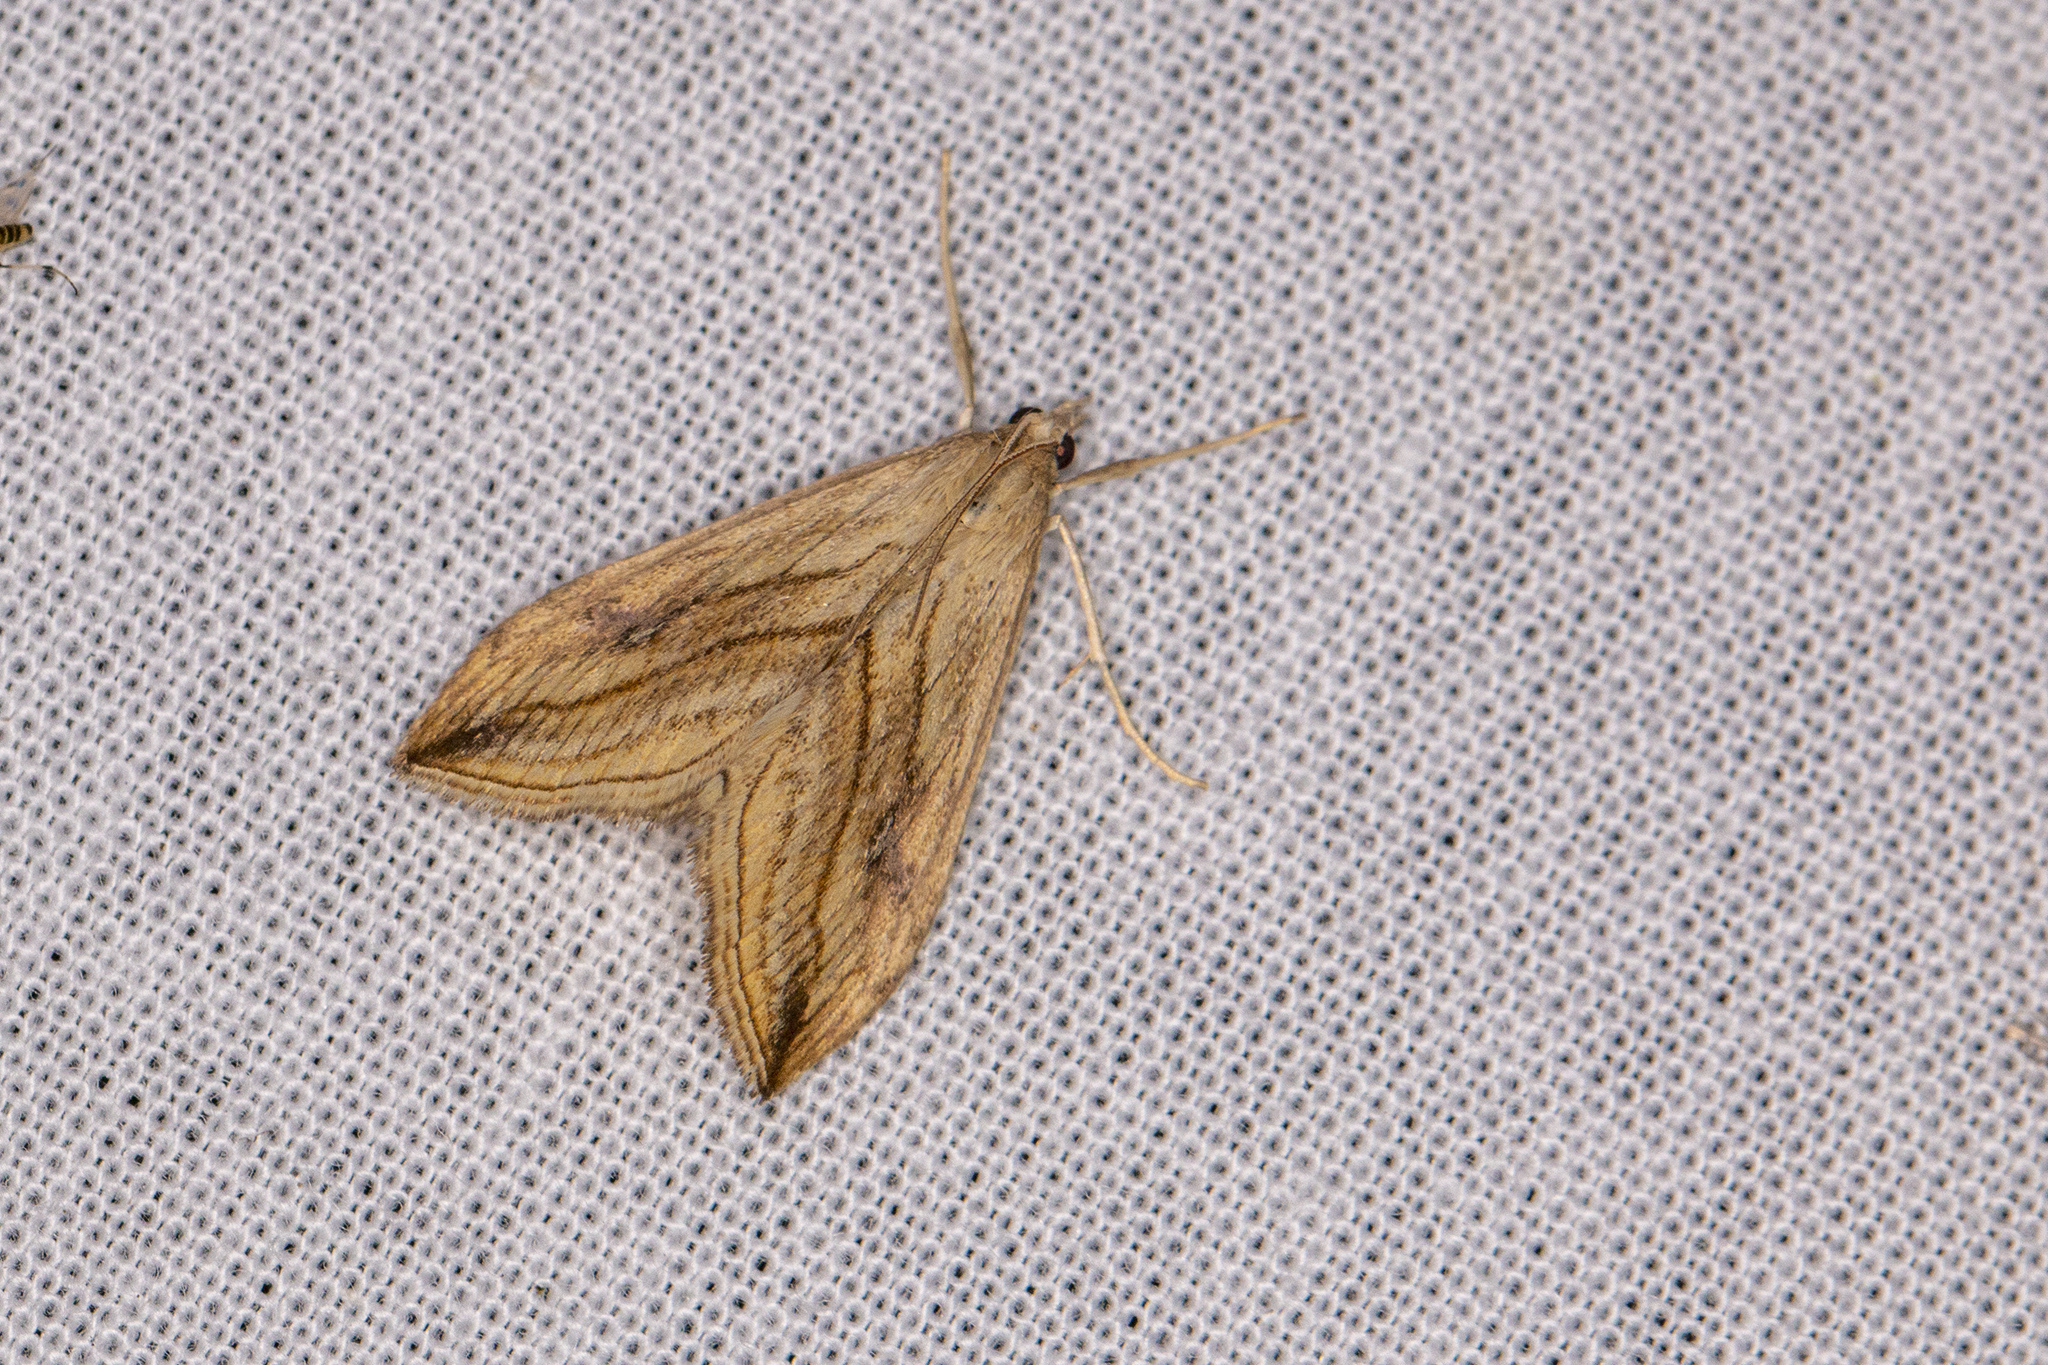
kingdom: Animalia
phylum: Arthropoda
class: Insecta
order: Lepidoptera
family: Crambidae
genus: Evergestis
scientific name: Evergestis forficalis
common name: Garden pebble
